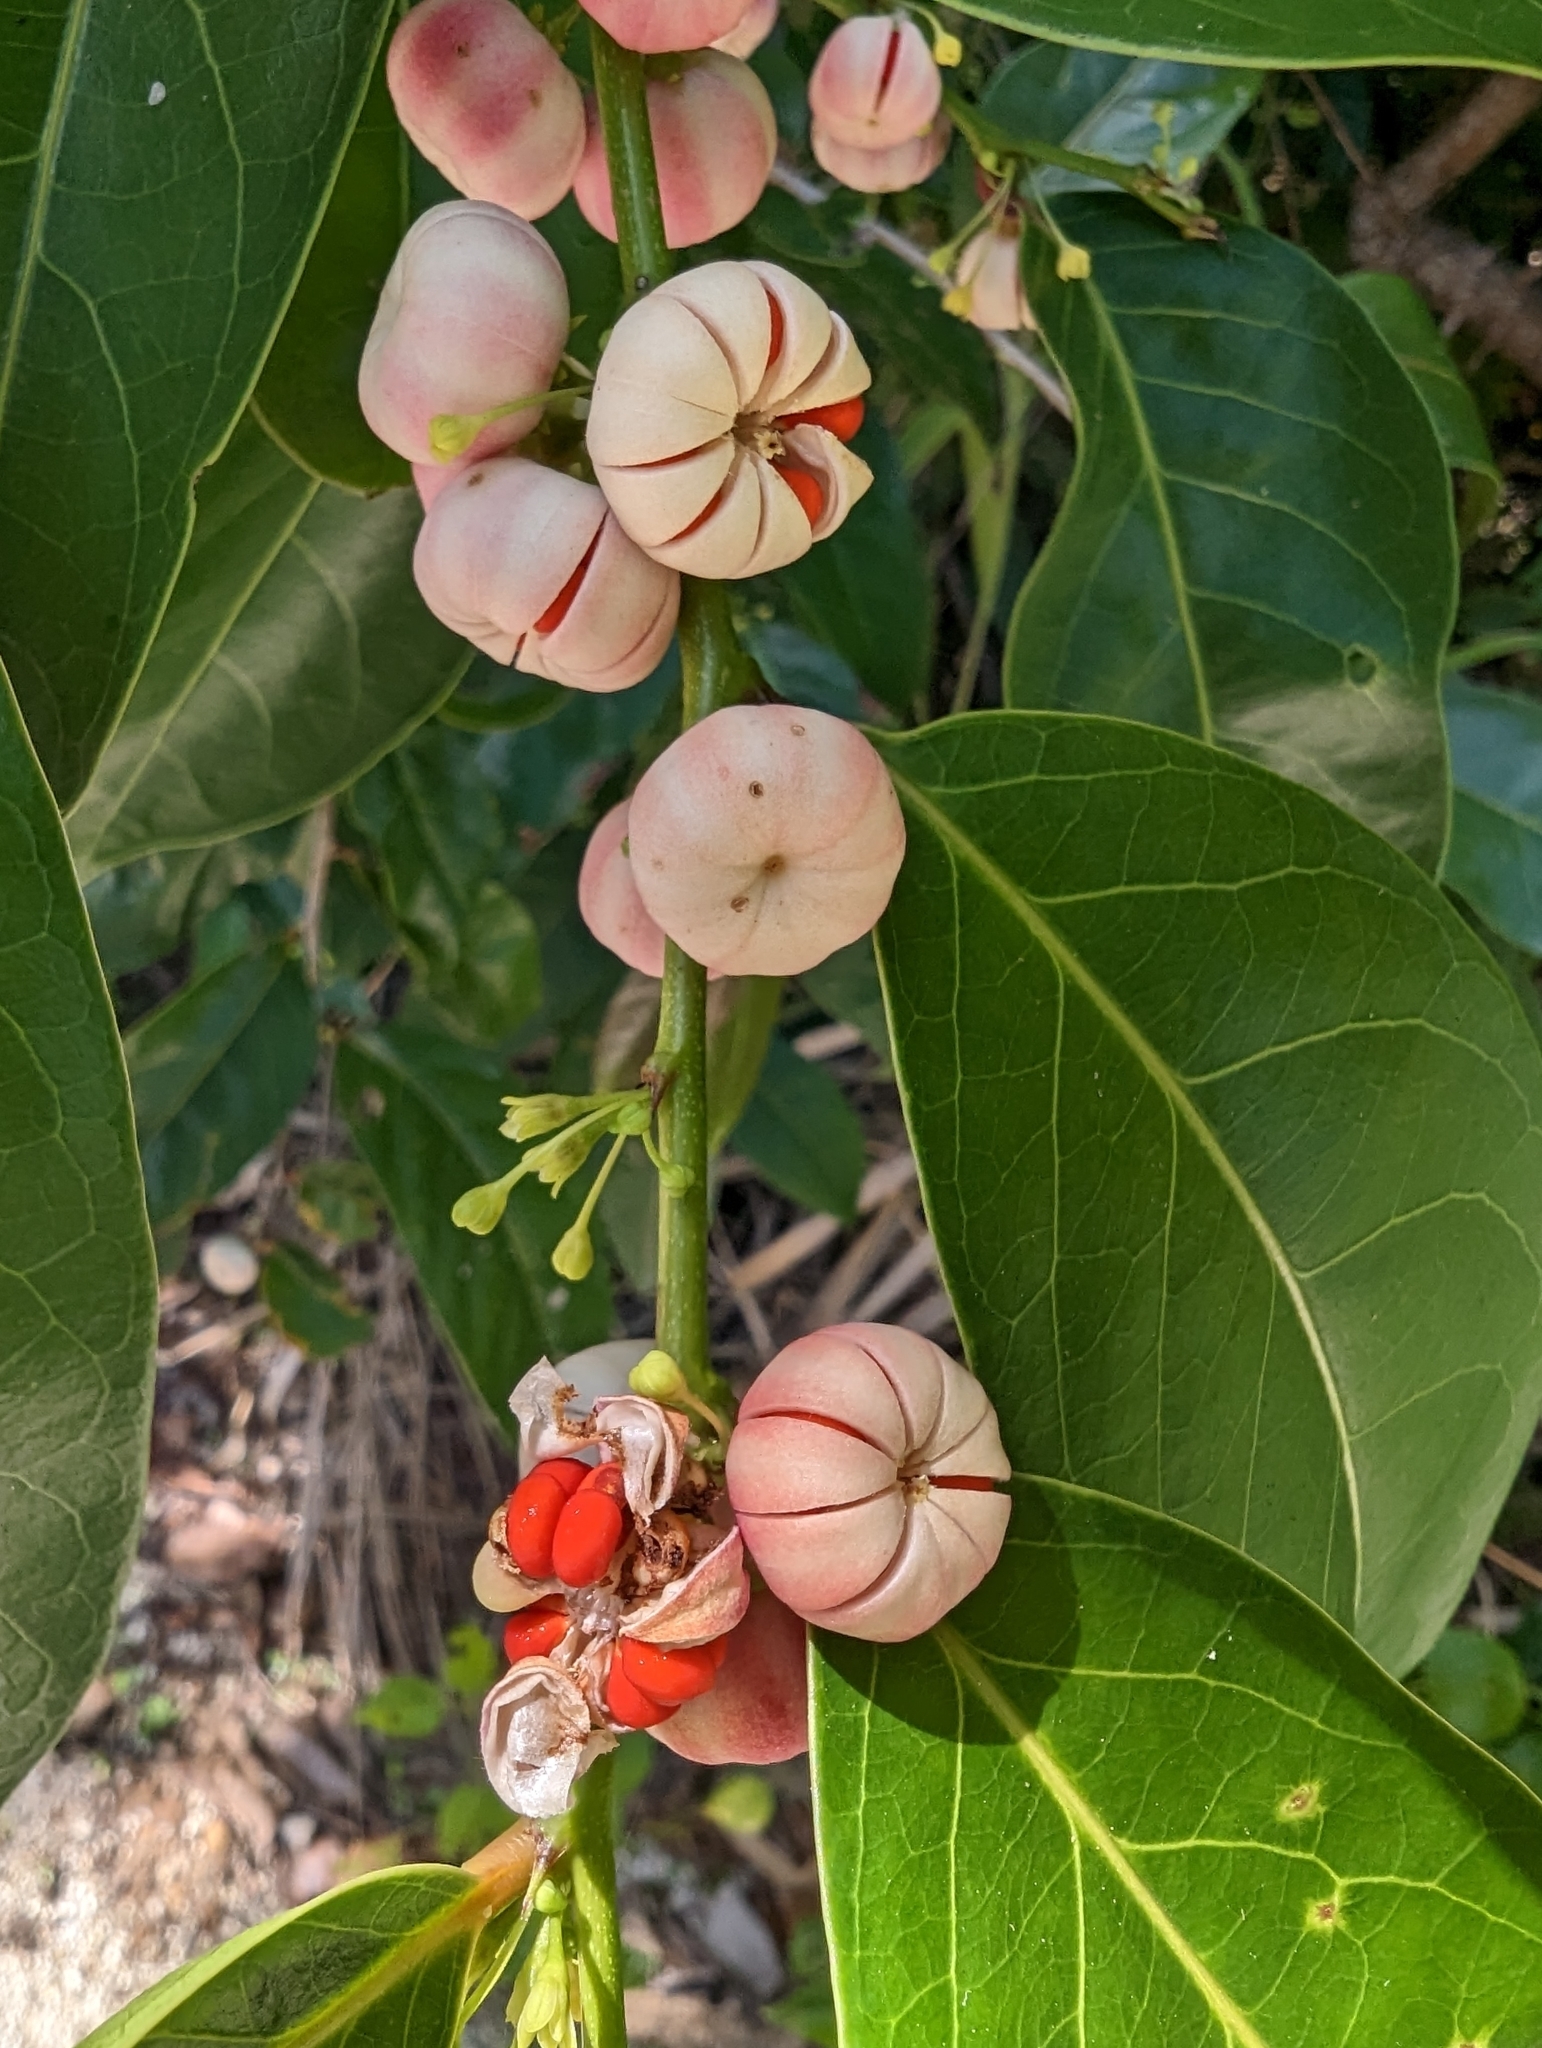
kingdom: Plantae
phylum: Tracheophyta
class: Magnoliopsida
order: Malpighiales
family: Phyllanthaceae
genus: Glochidion
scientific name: Glochidion ferdinandi
